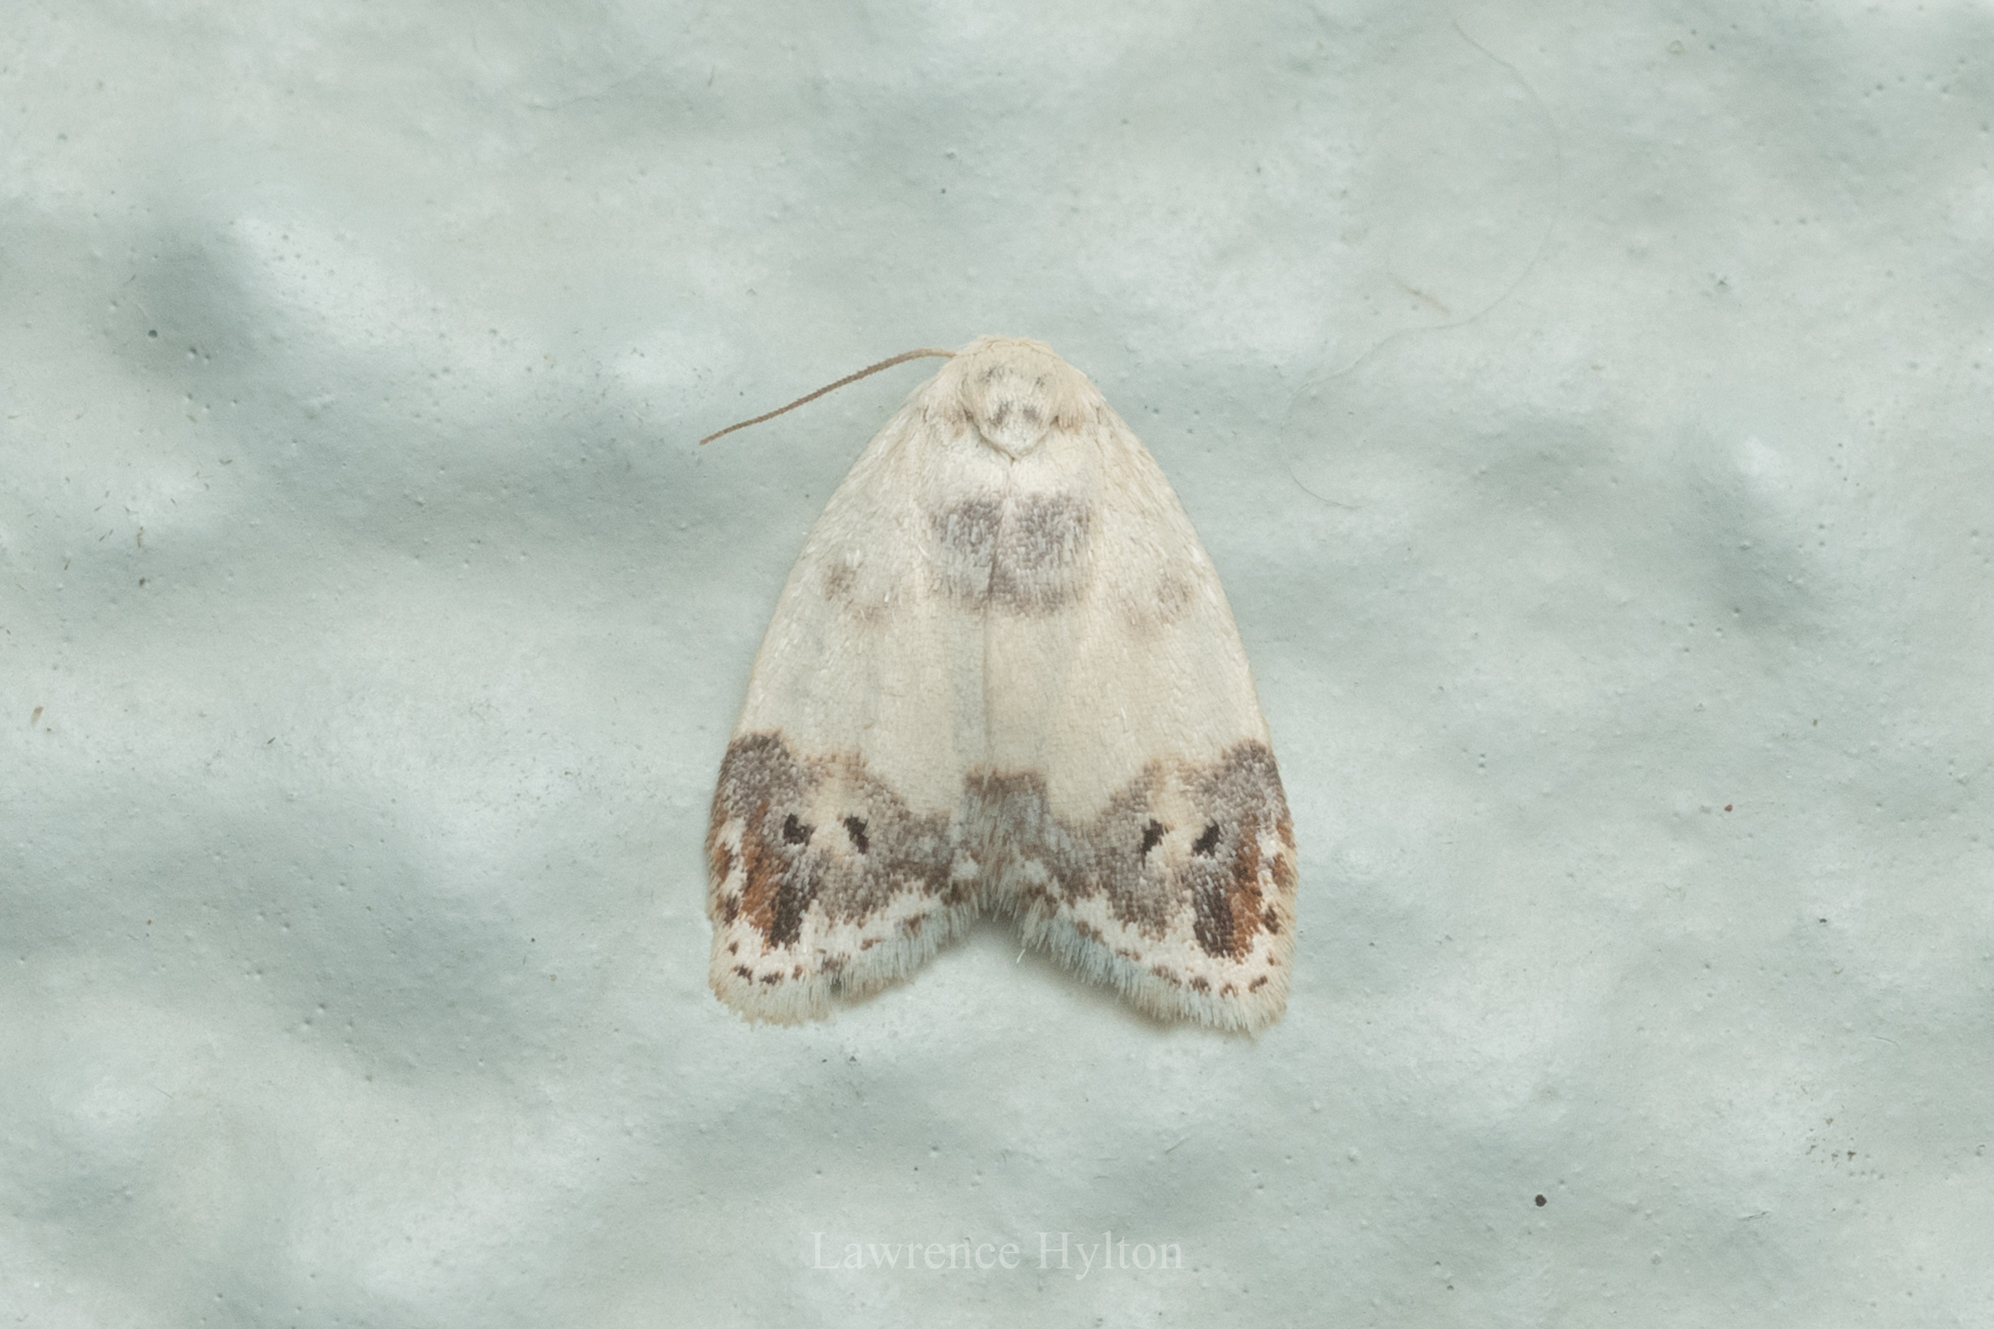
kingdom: Animalia
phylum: Arthropoda
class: Insecta
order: Lepidoptera
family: Erebidae
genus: Neoduma
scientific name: Neoduma kuangtungensis
